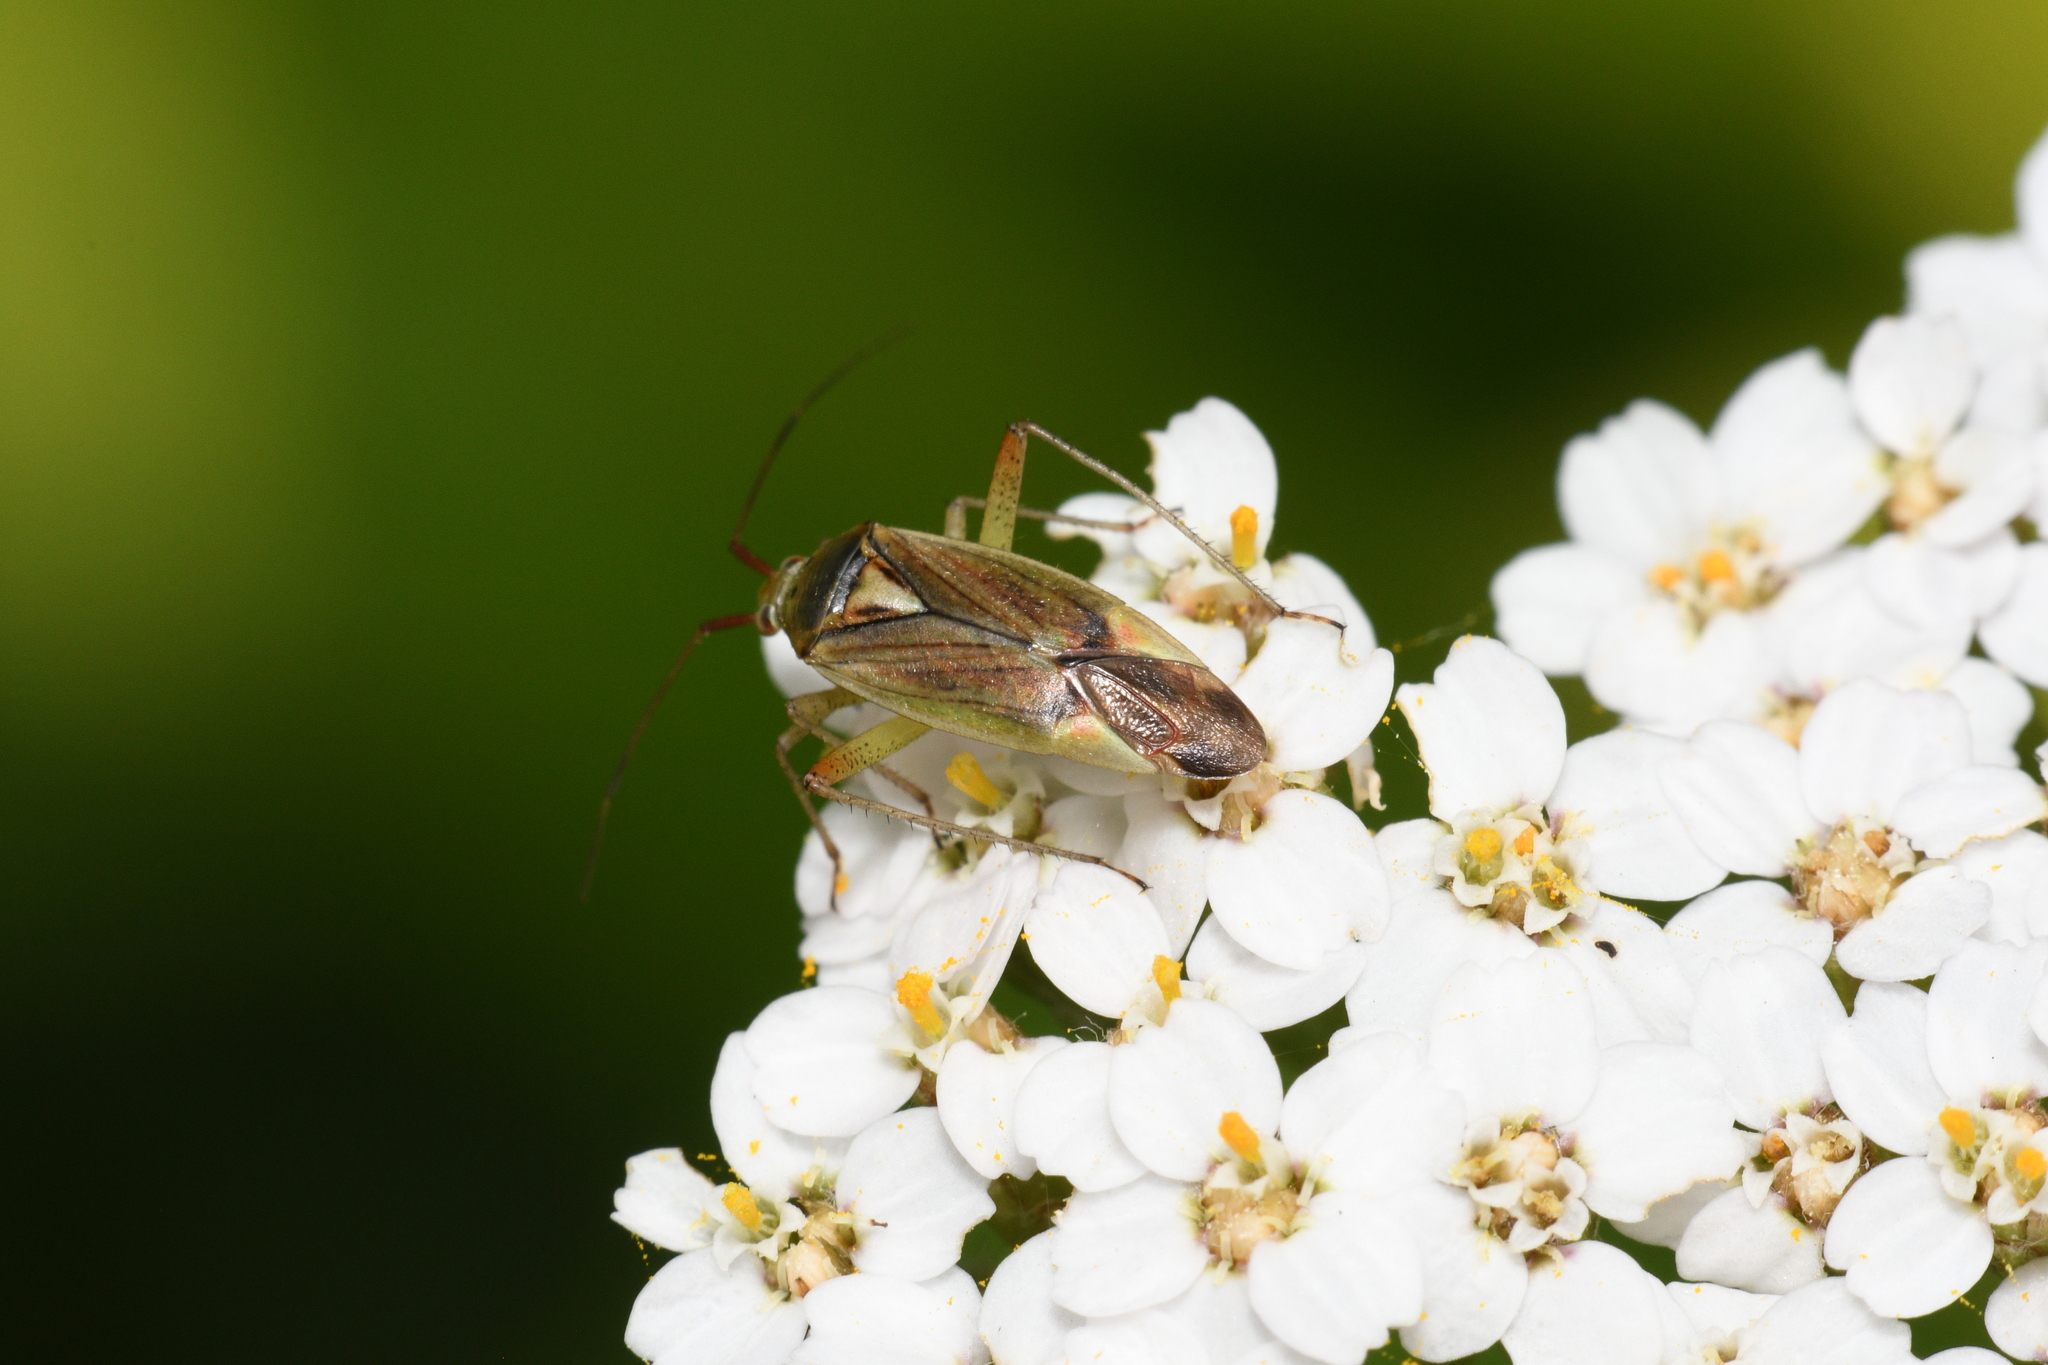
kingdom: Animalia
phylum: Arthropoda
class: Insecta
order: Hemiptera
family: Miridae
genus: Closterotomus
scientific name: Closterotomus trivialis
